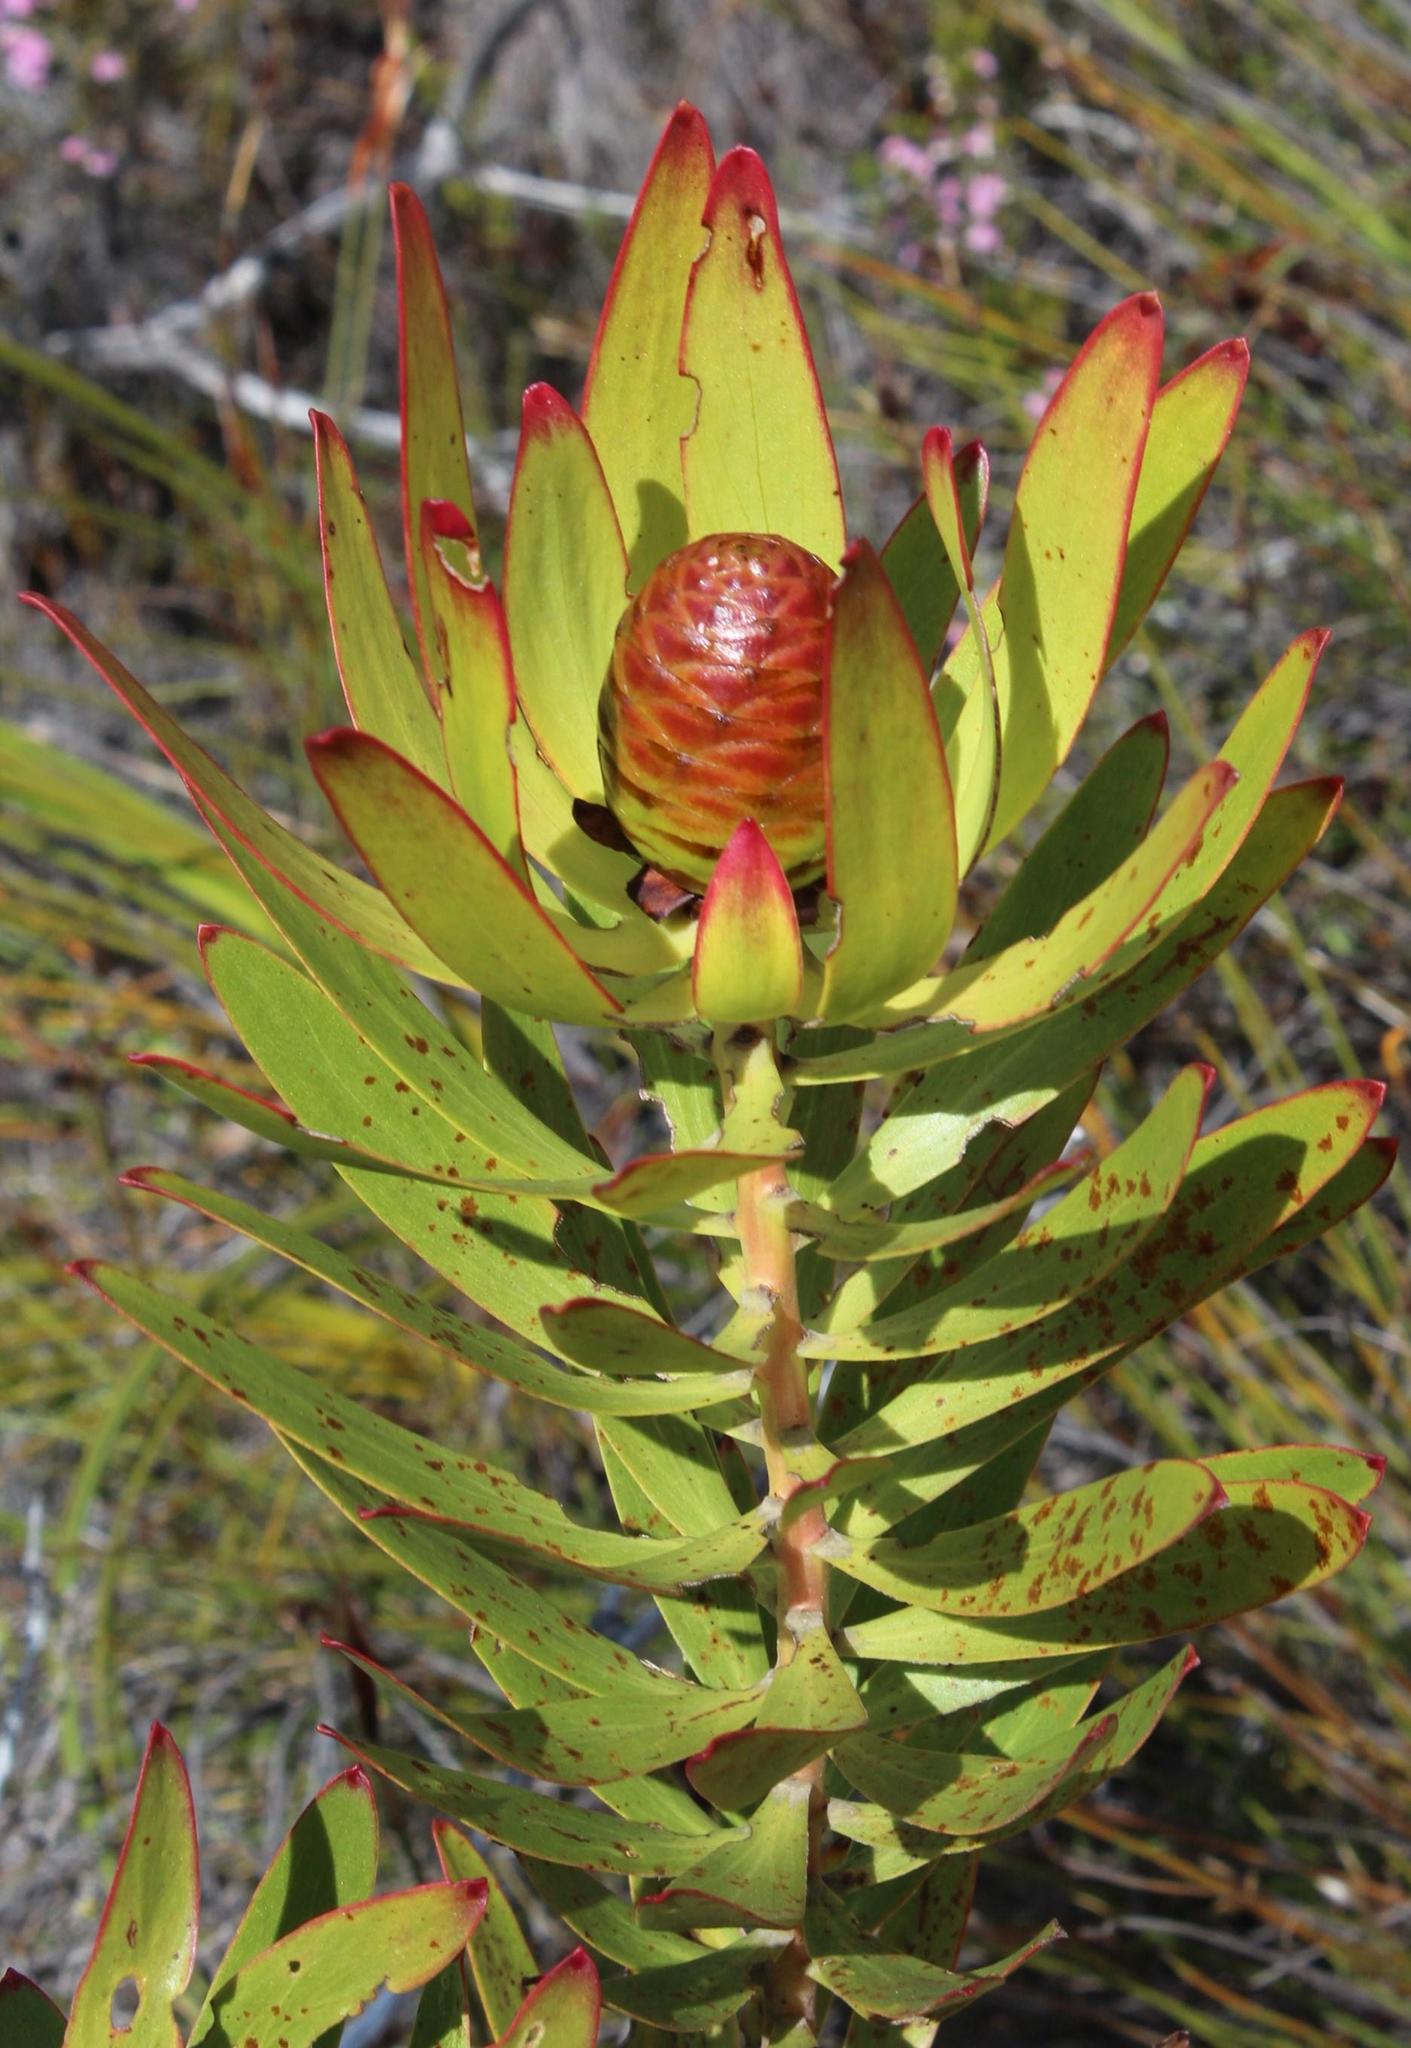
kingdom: Plantae
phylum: Tracheophyta
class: Magnoliopsida
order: Proteales
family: Proteaceae
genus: Leucadendron
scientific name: Leucadendron microcephalum
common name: Oilbract conebush
